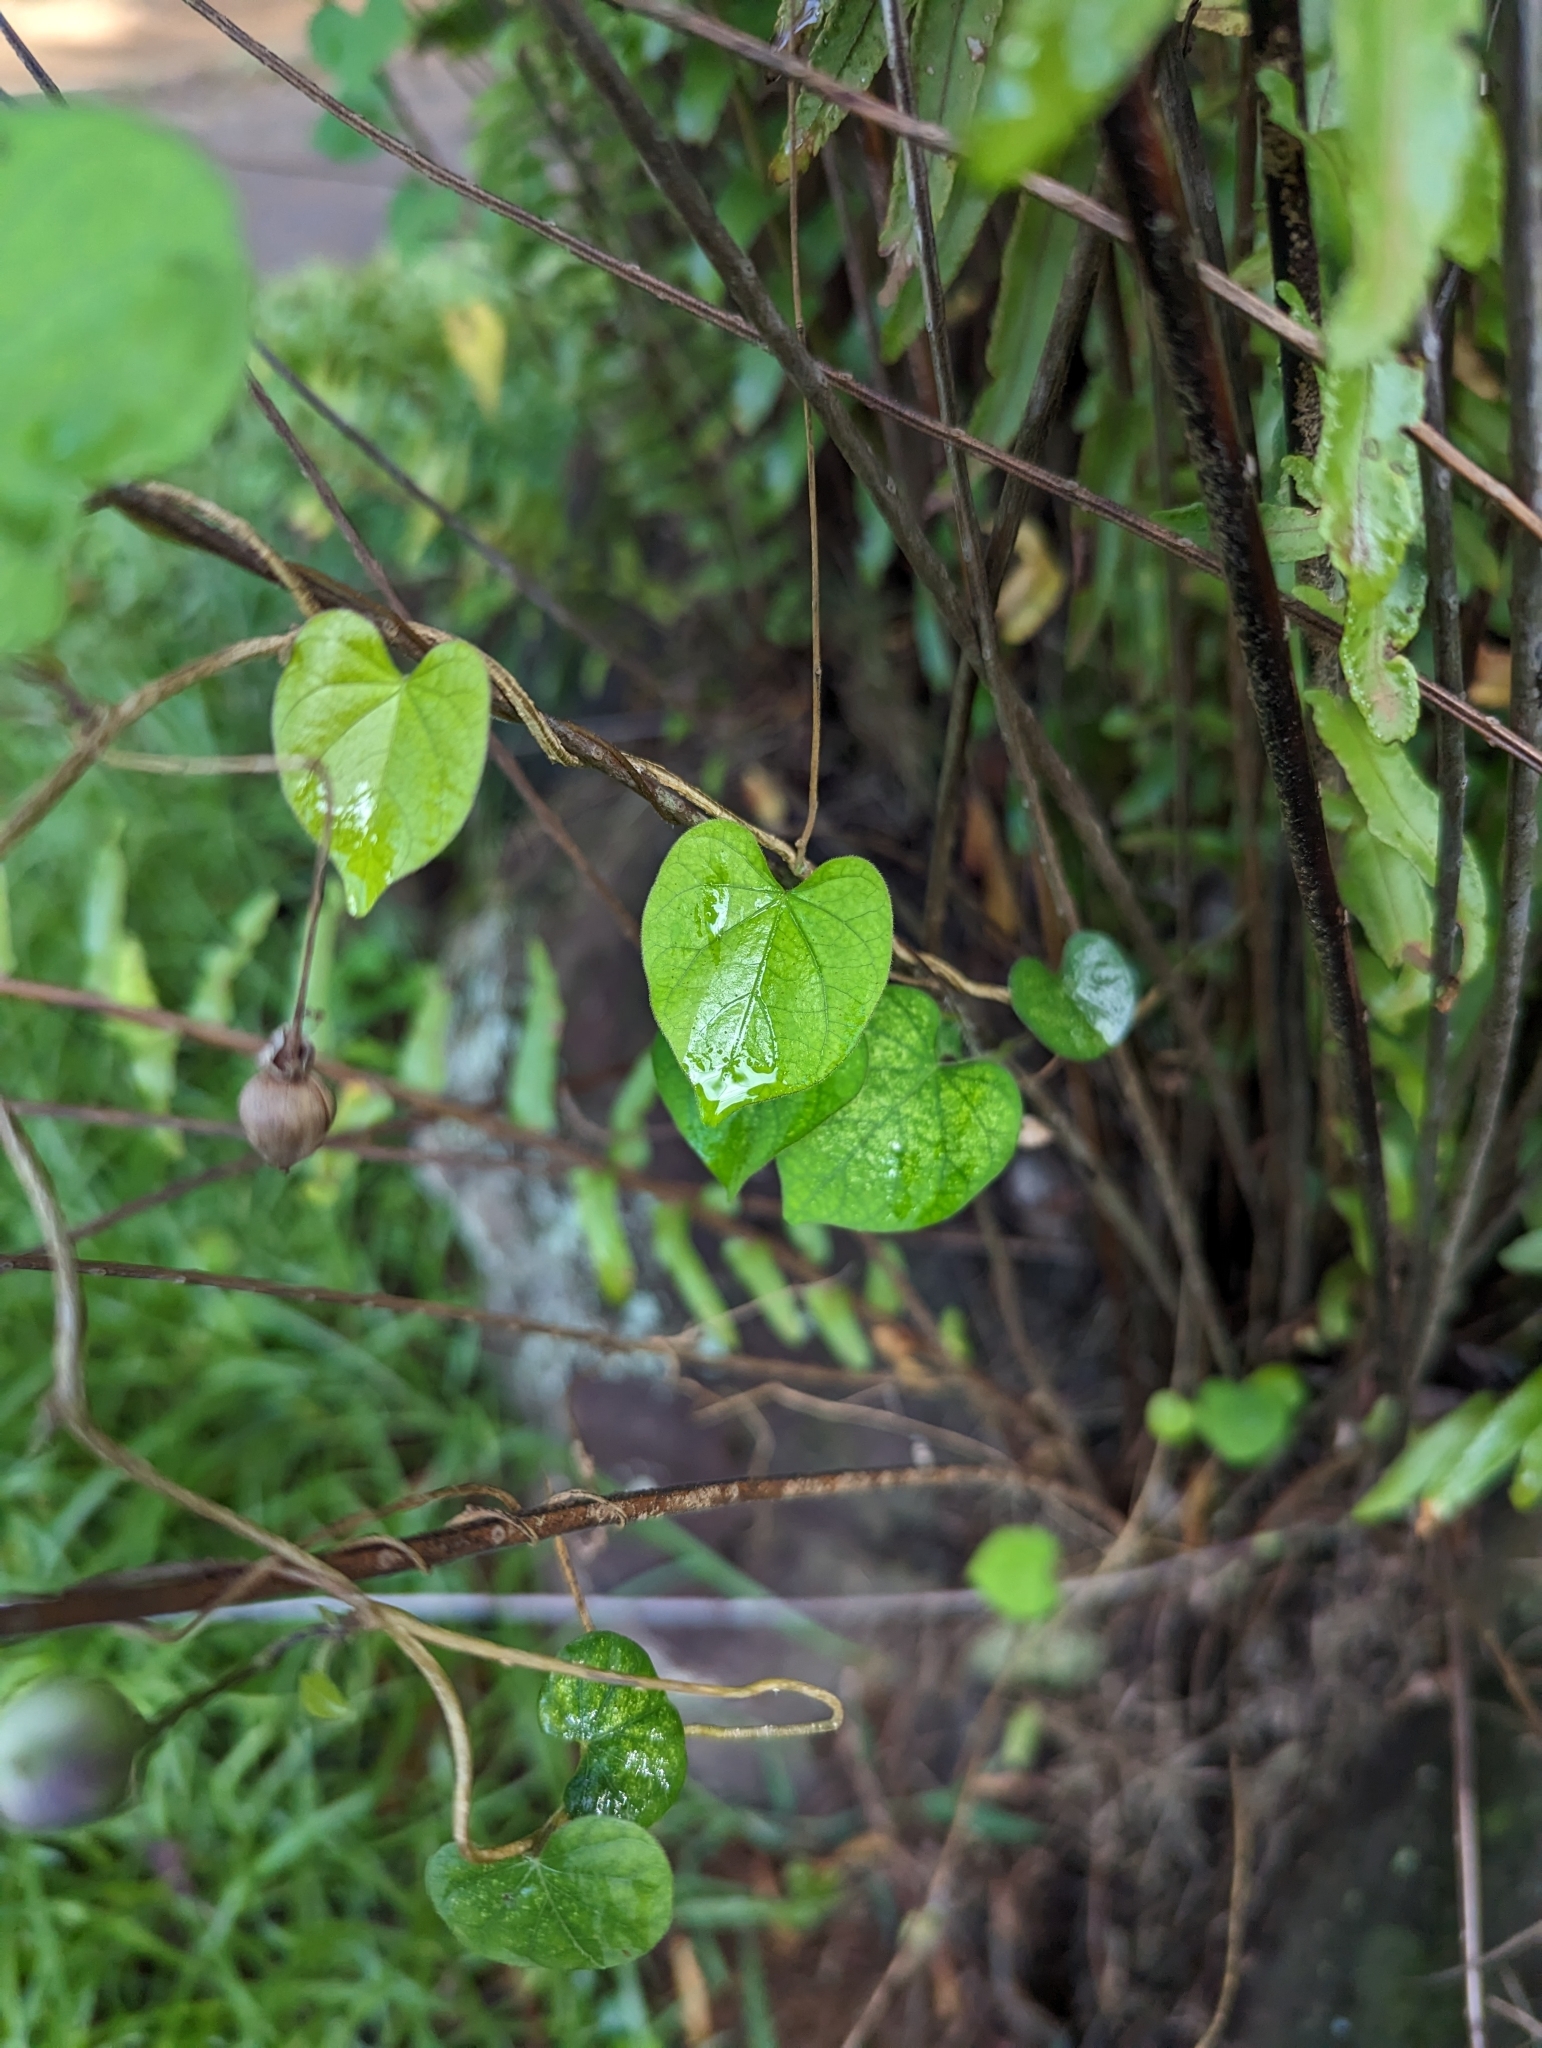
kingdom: Plantae
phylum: Tracheophyta
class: Magnoliopsida
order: Solanales
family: Convolvulaceae
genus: Ipomoea
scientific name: Ipomoea obscura
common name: Obscure morning-glory
